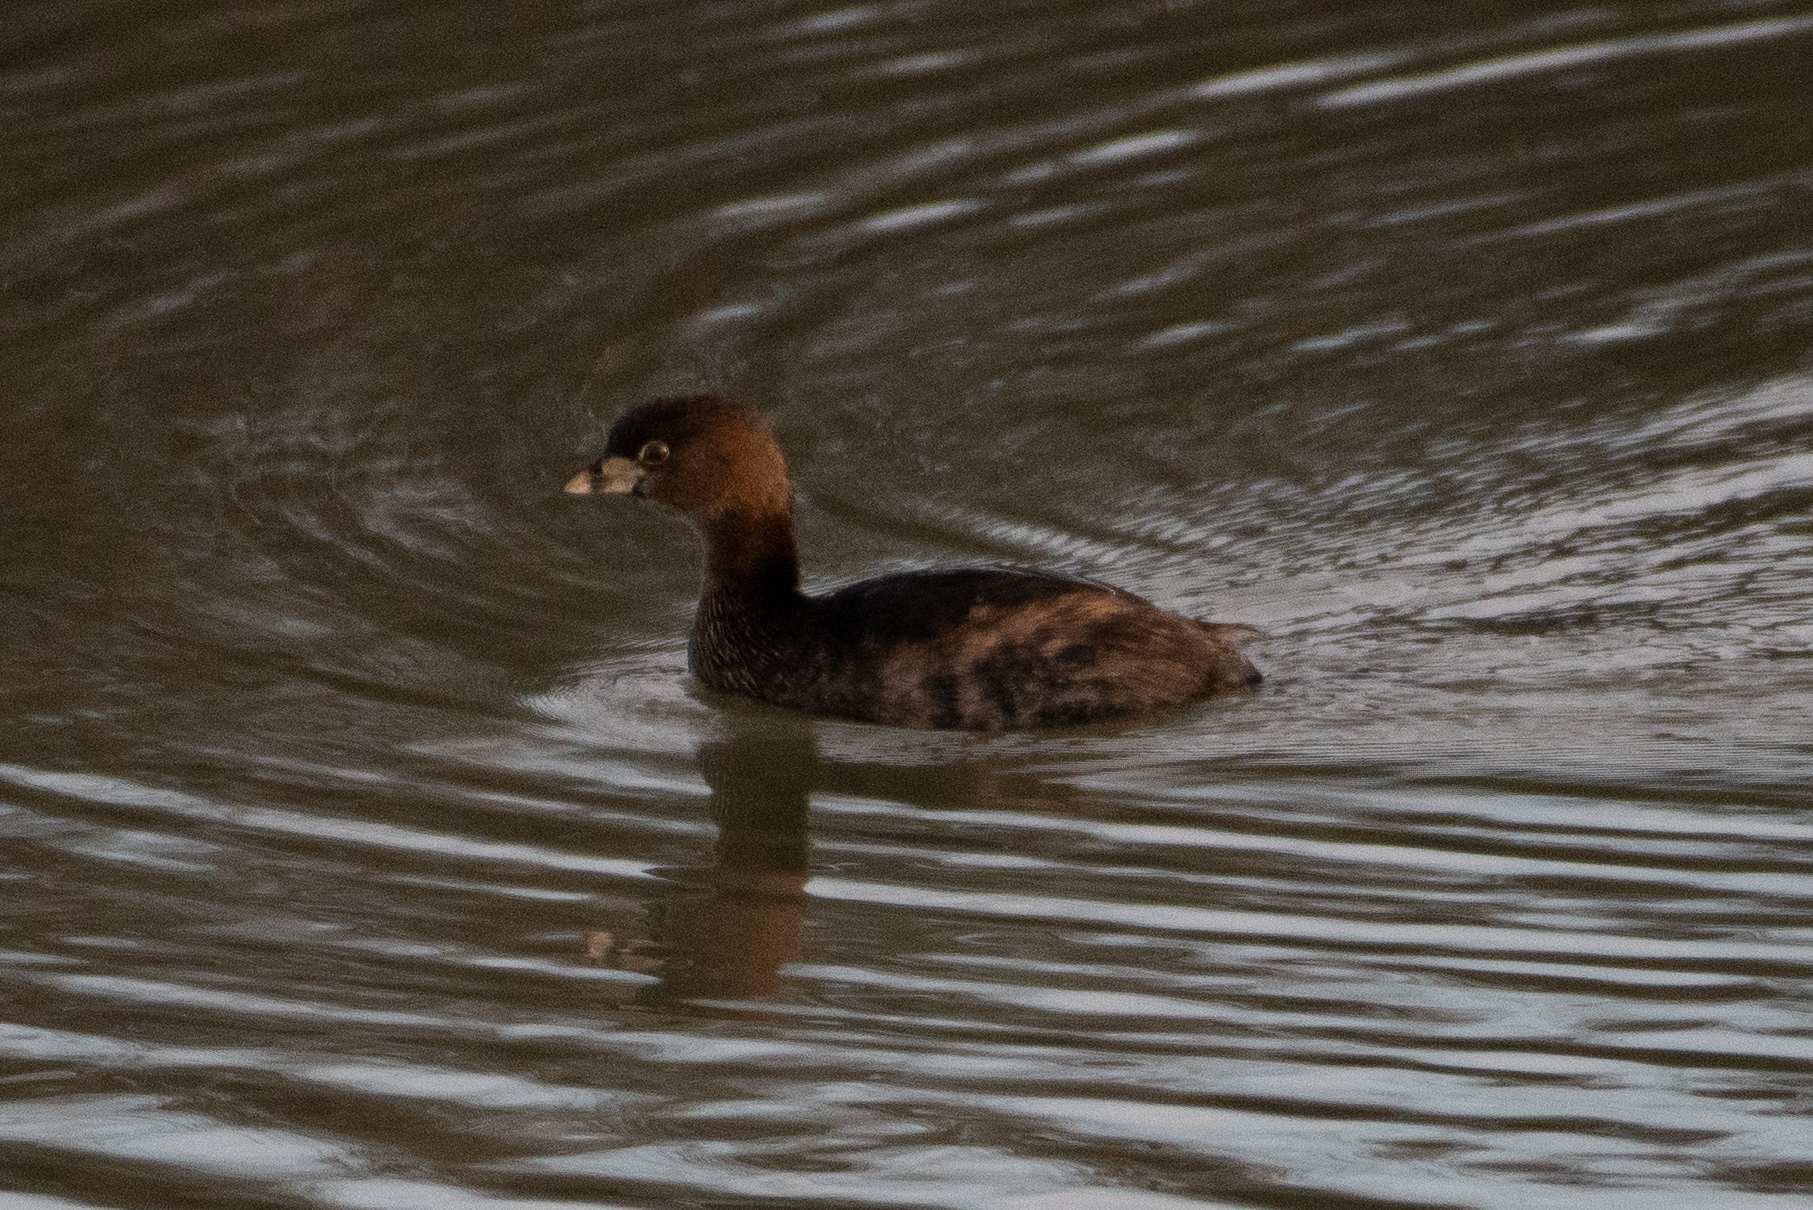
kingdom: Animalia
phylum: Chordata
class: Aves
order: Podicipediformes
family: Podicipedidae
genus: Podilymbus
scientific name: Podilymbus podiceps
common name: Pied-billed grebe
